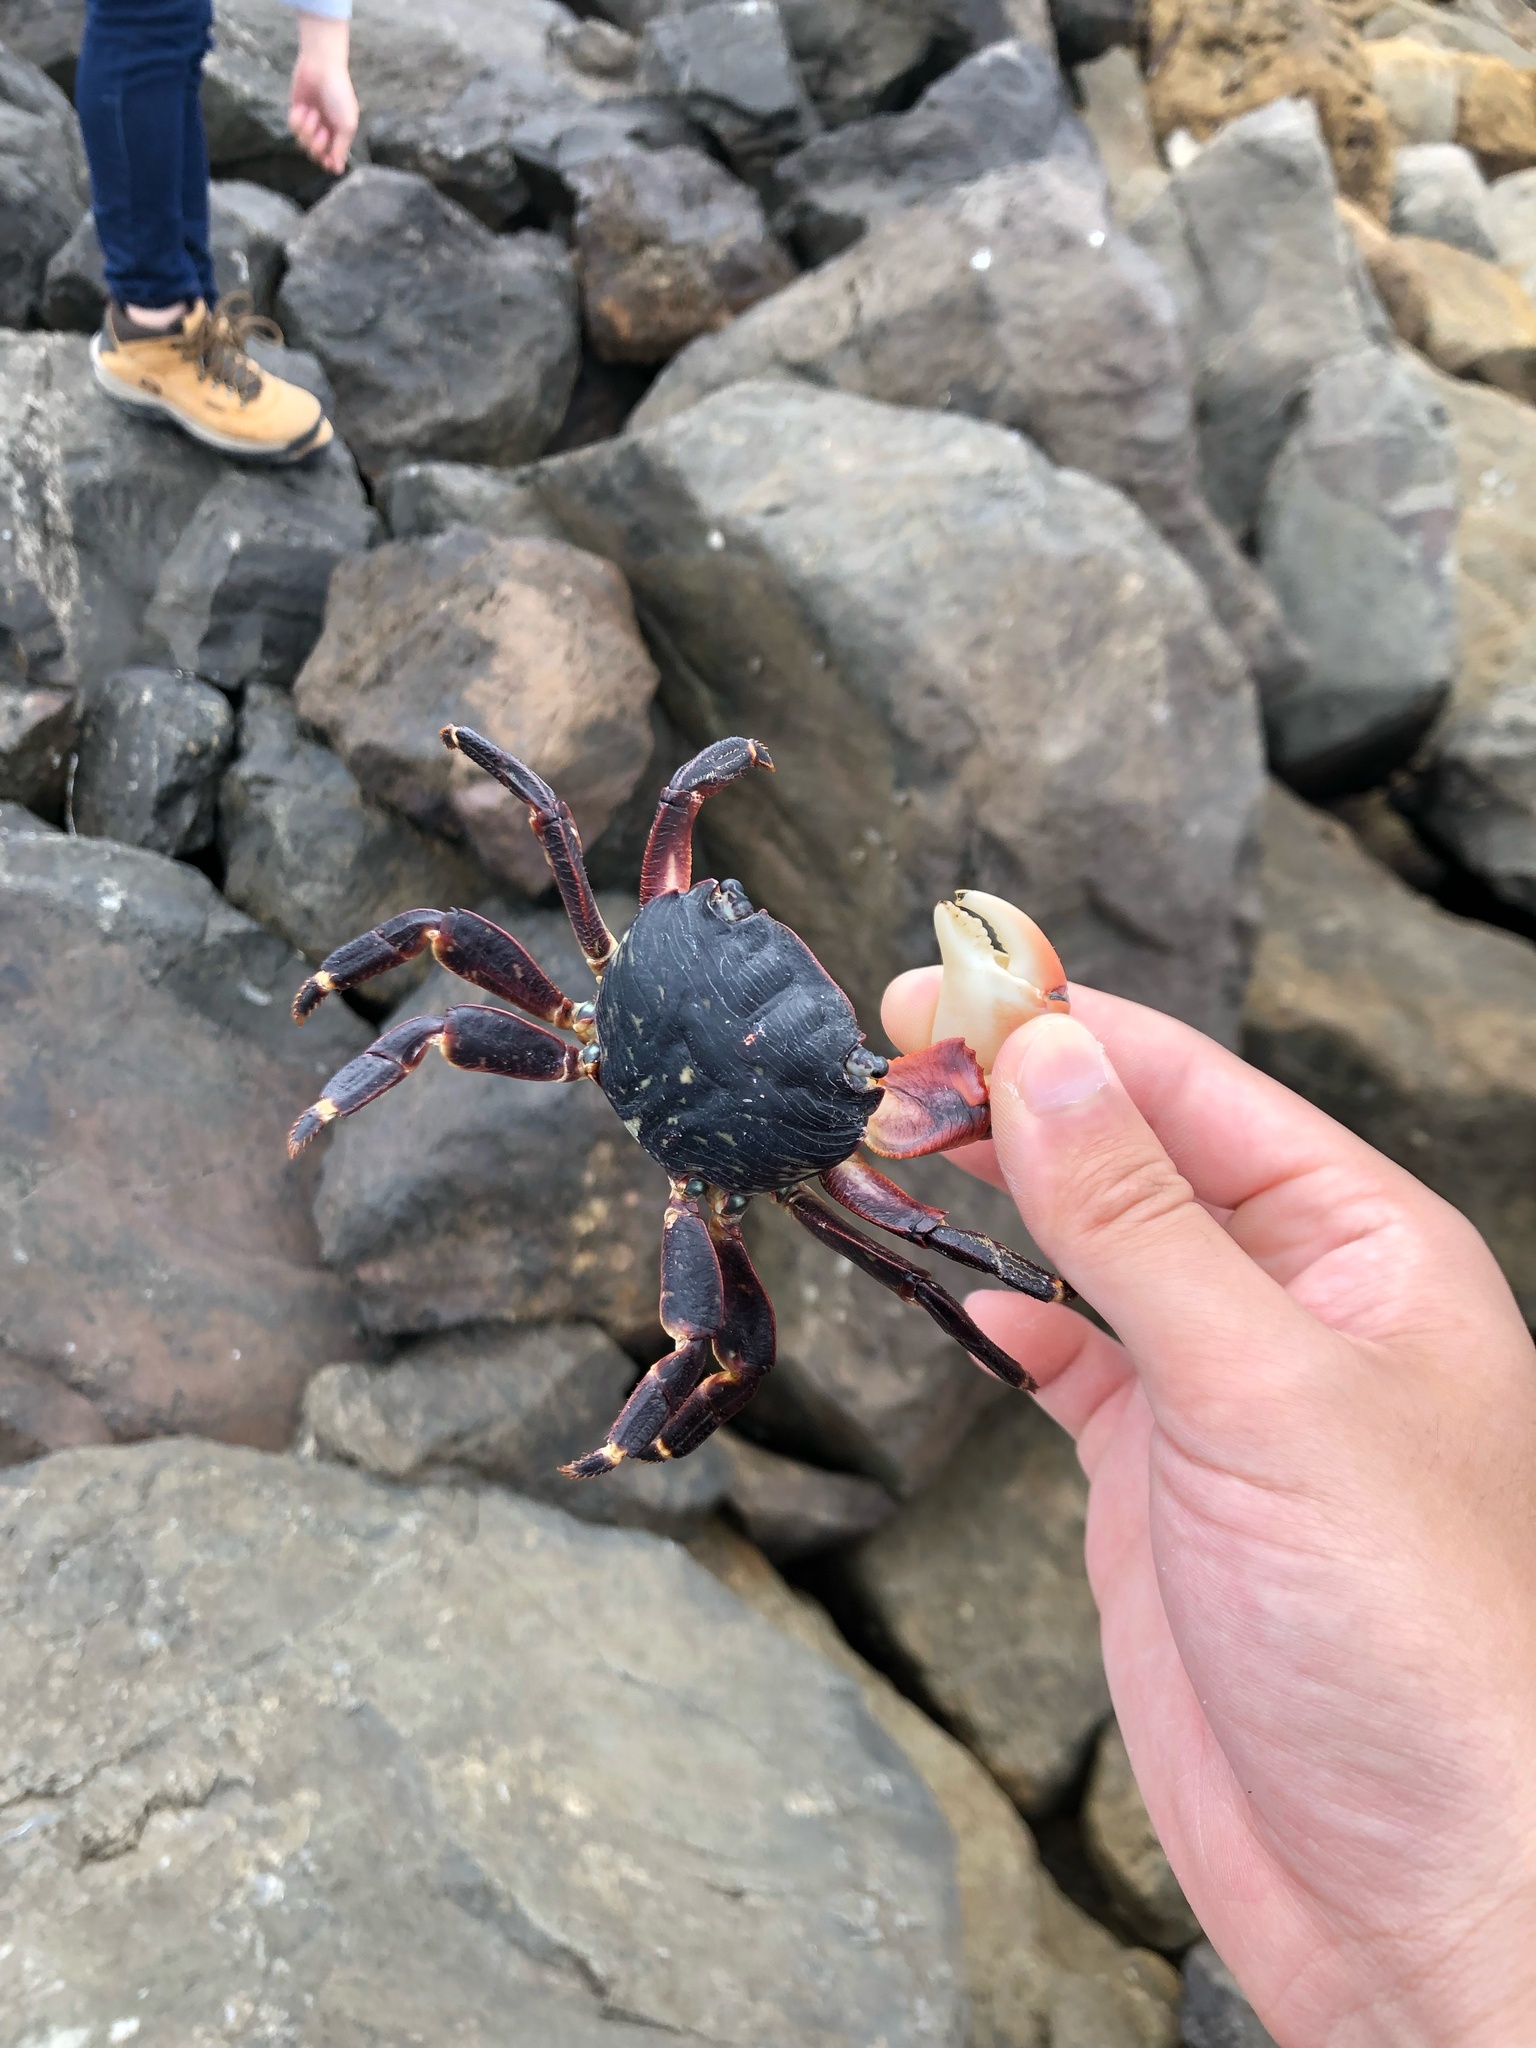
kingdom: Animalia
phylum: Arthropoda
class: Malacostraca
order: Decapoda
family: Grapsidae
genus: Pachygrapsus
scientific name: Pachygrapsus crassipes
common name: Striped shore crab
